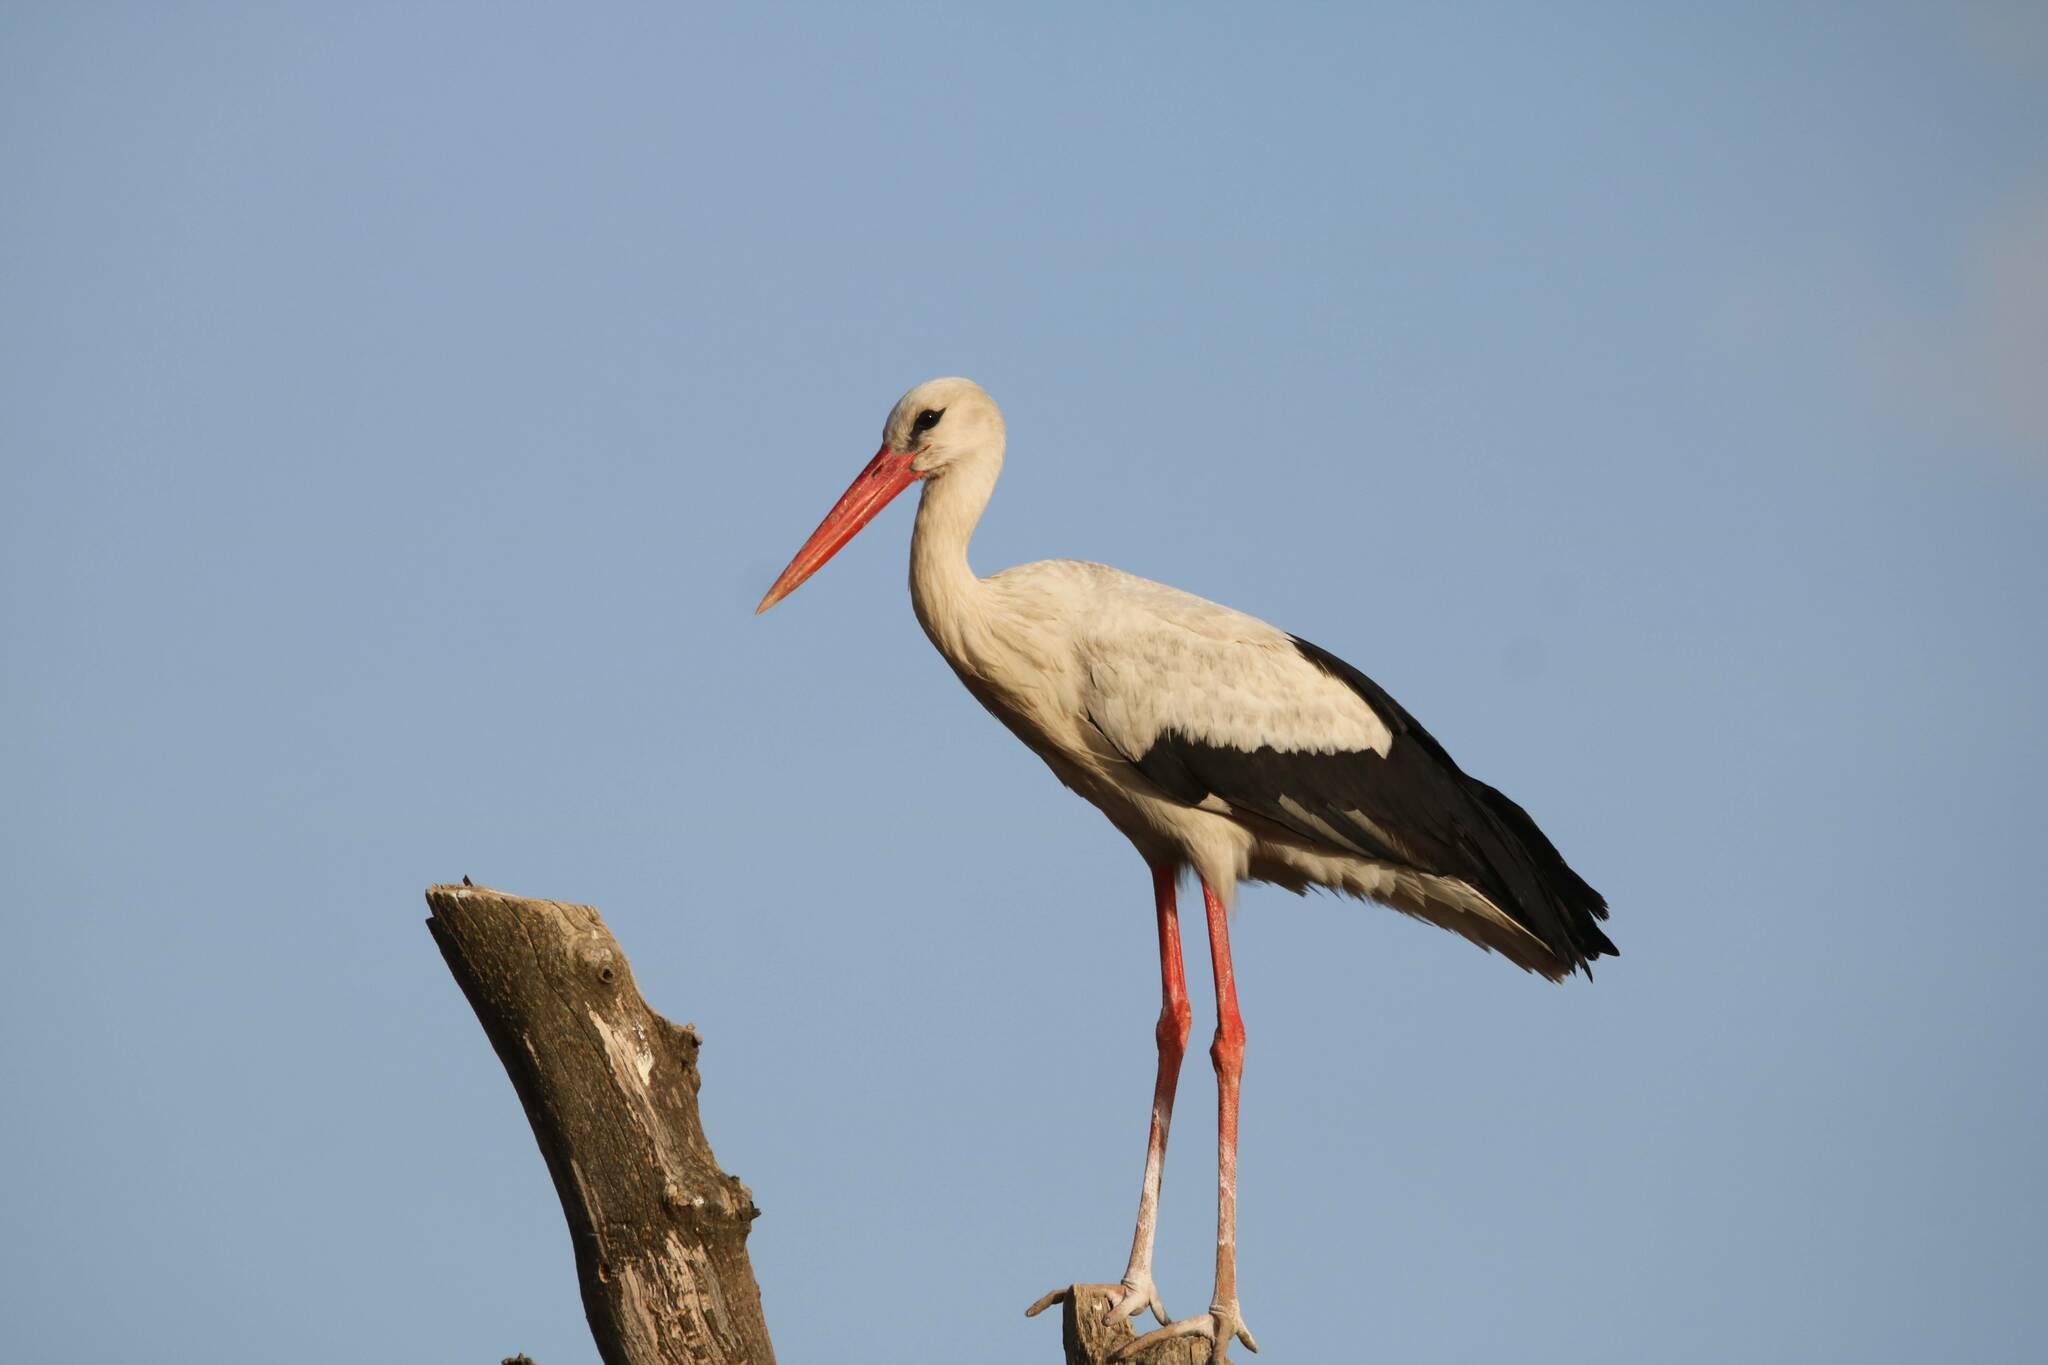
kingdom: Animalia
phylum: Chordata
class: Aves
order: Ciconiiformes
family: Ciconiidae
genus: Ciconia
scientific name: Ciconia ciconia
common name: White stork
